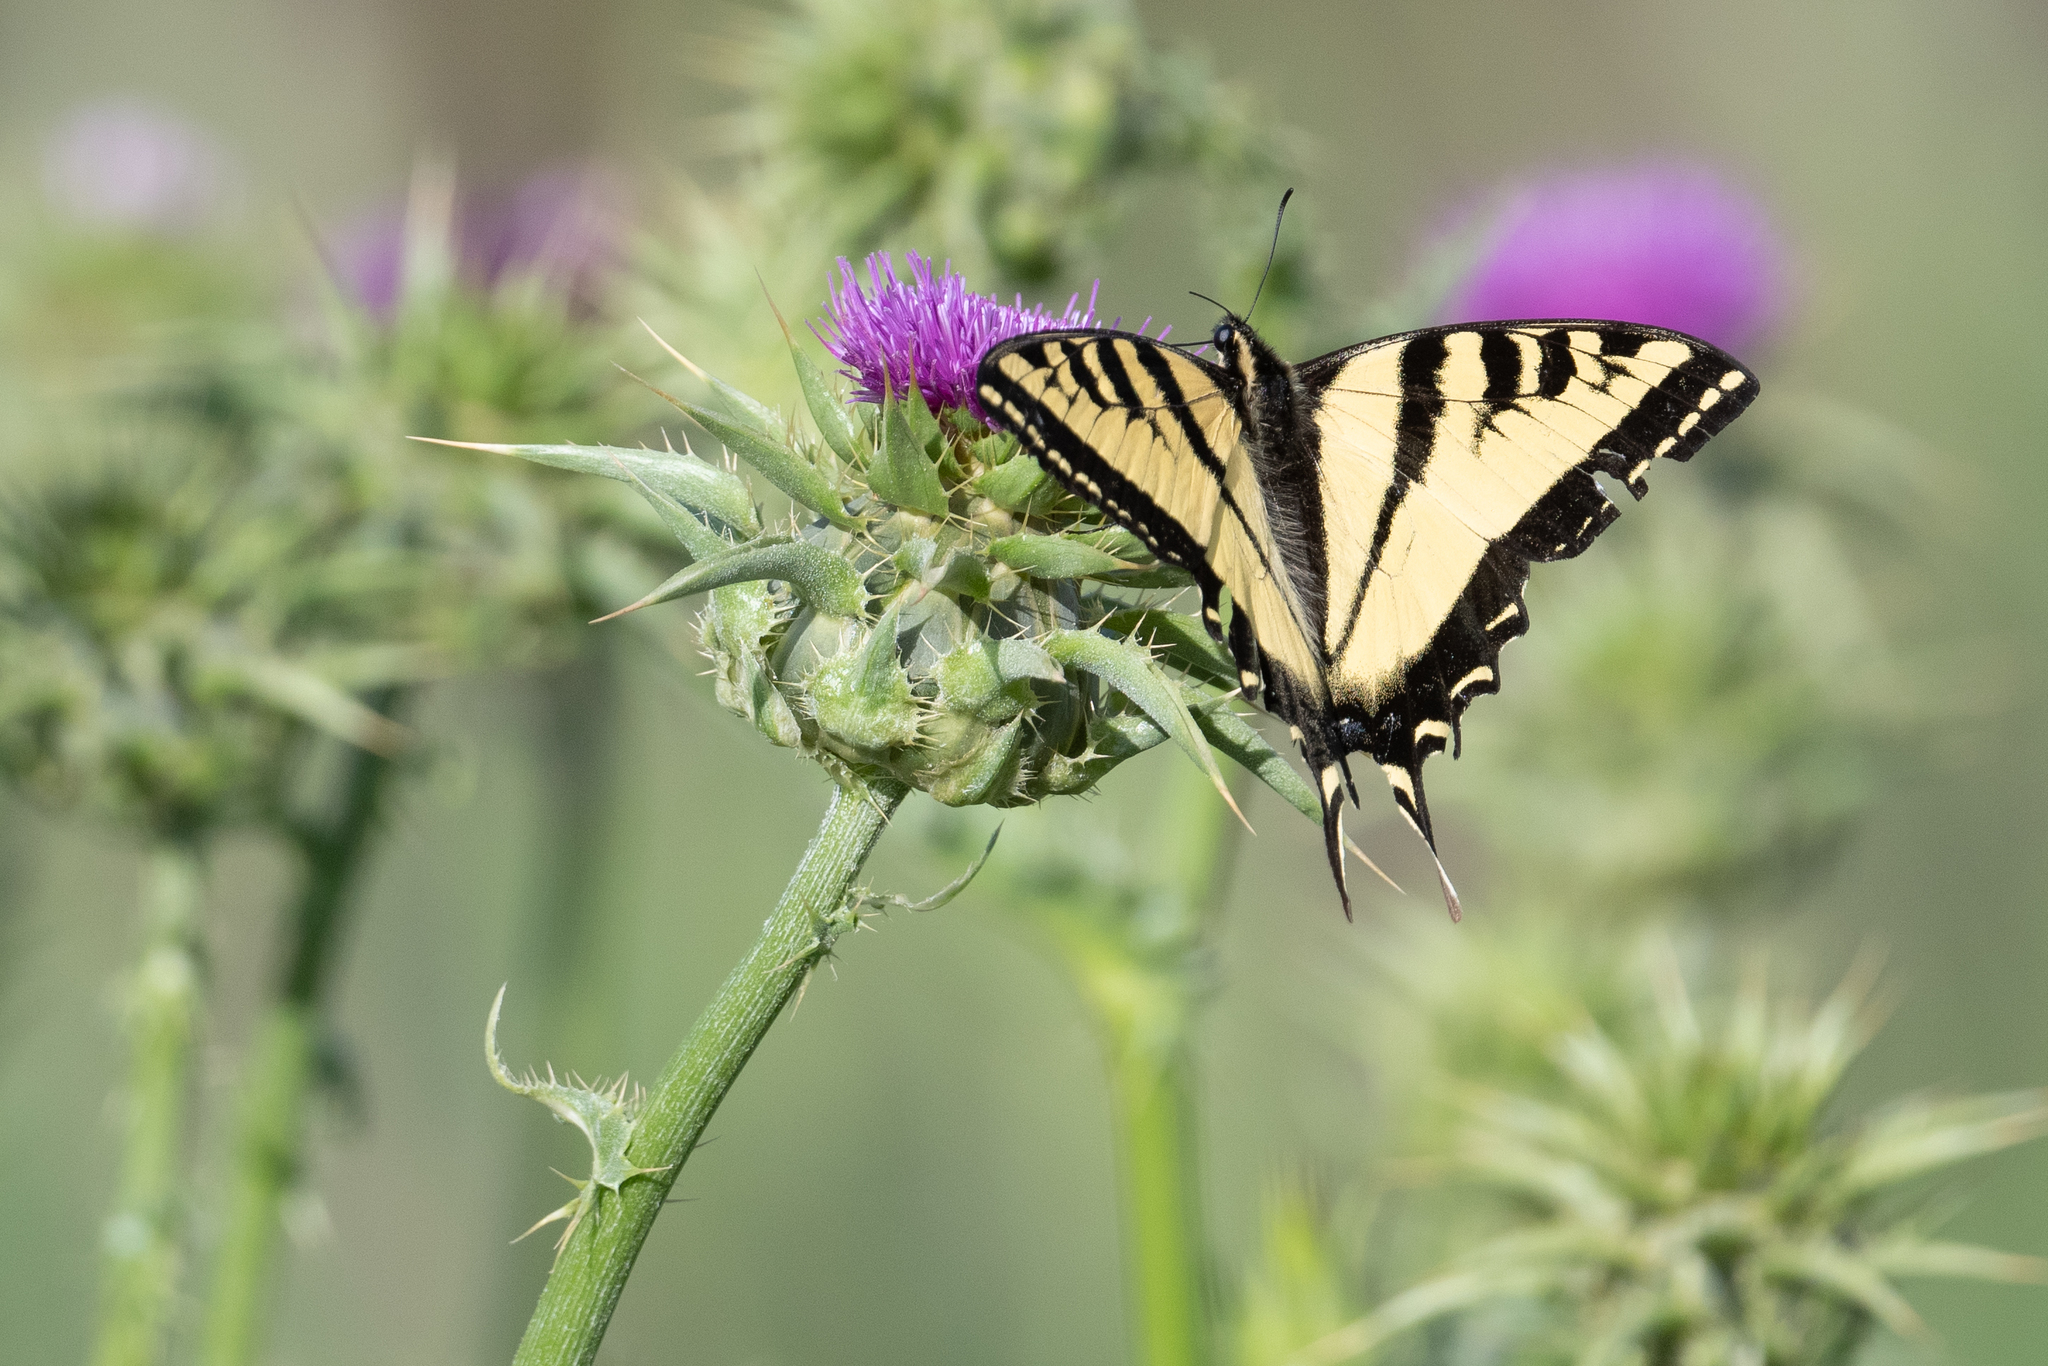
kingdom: Animalia
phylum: Arthropoda
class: Insecta
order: Lepidoptera
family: Papilionidae
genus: Papilio
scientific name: Papilio rutulus
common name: Western tiger swallowtail
